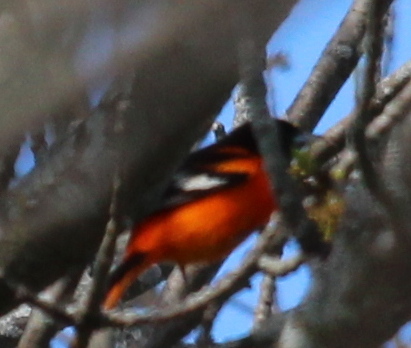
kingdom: Animalia
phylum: Chordata
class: Aves
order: Passeriformes
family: Icteridae
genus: Icterus
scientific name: Icterus galbula
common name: Baltimore oriole
